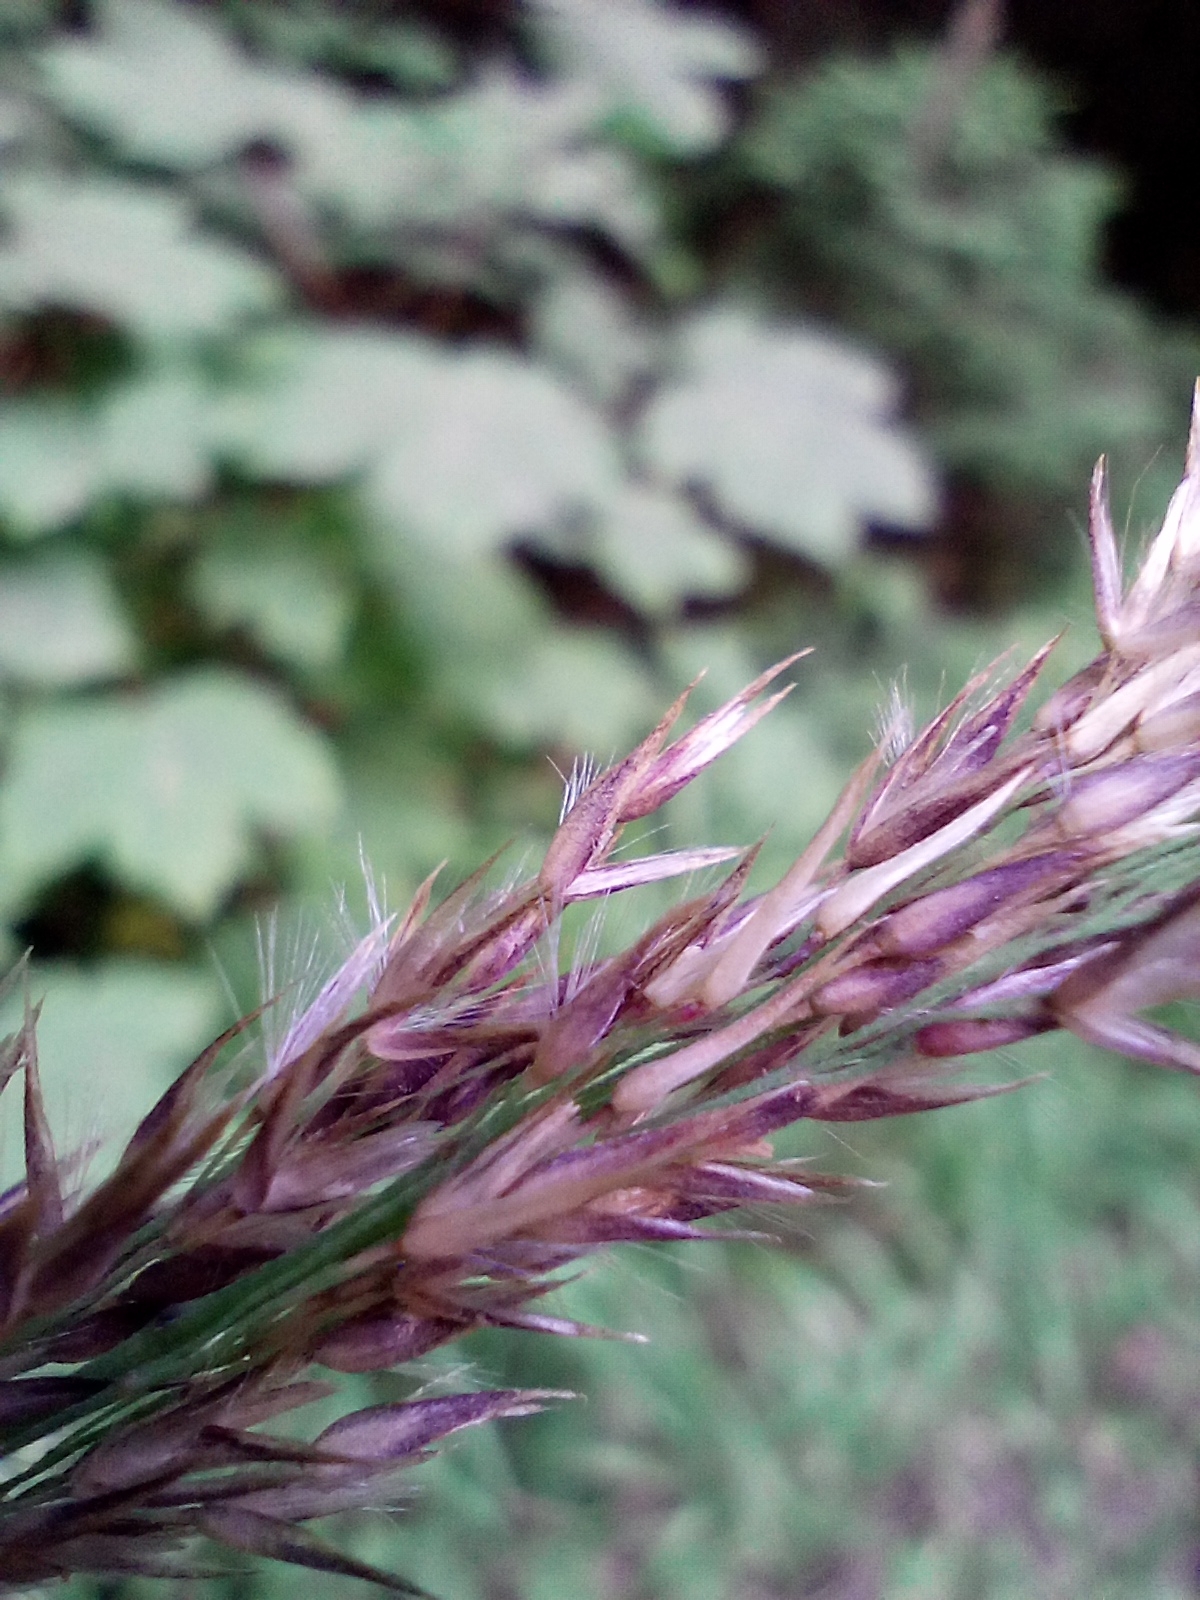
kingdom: Plantae
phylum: Tracheophyta
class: Liliopsida
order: Poales
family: Poaceae
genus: Calamagrostis
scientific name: Calamagrostis villosa
